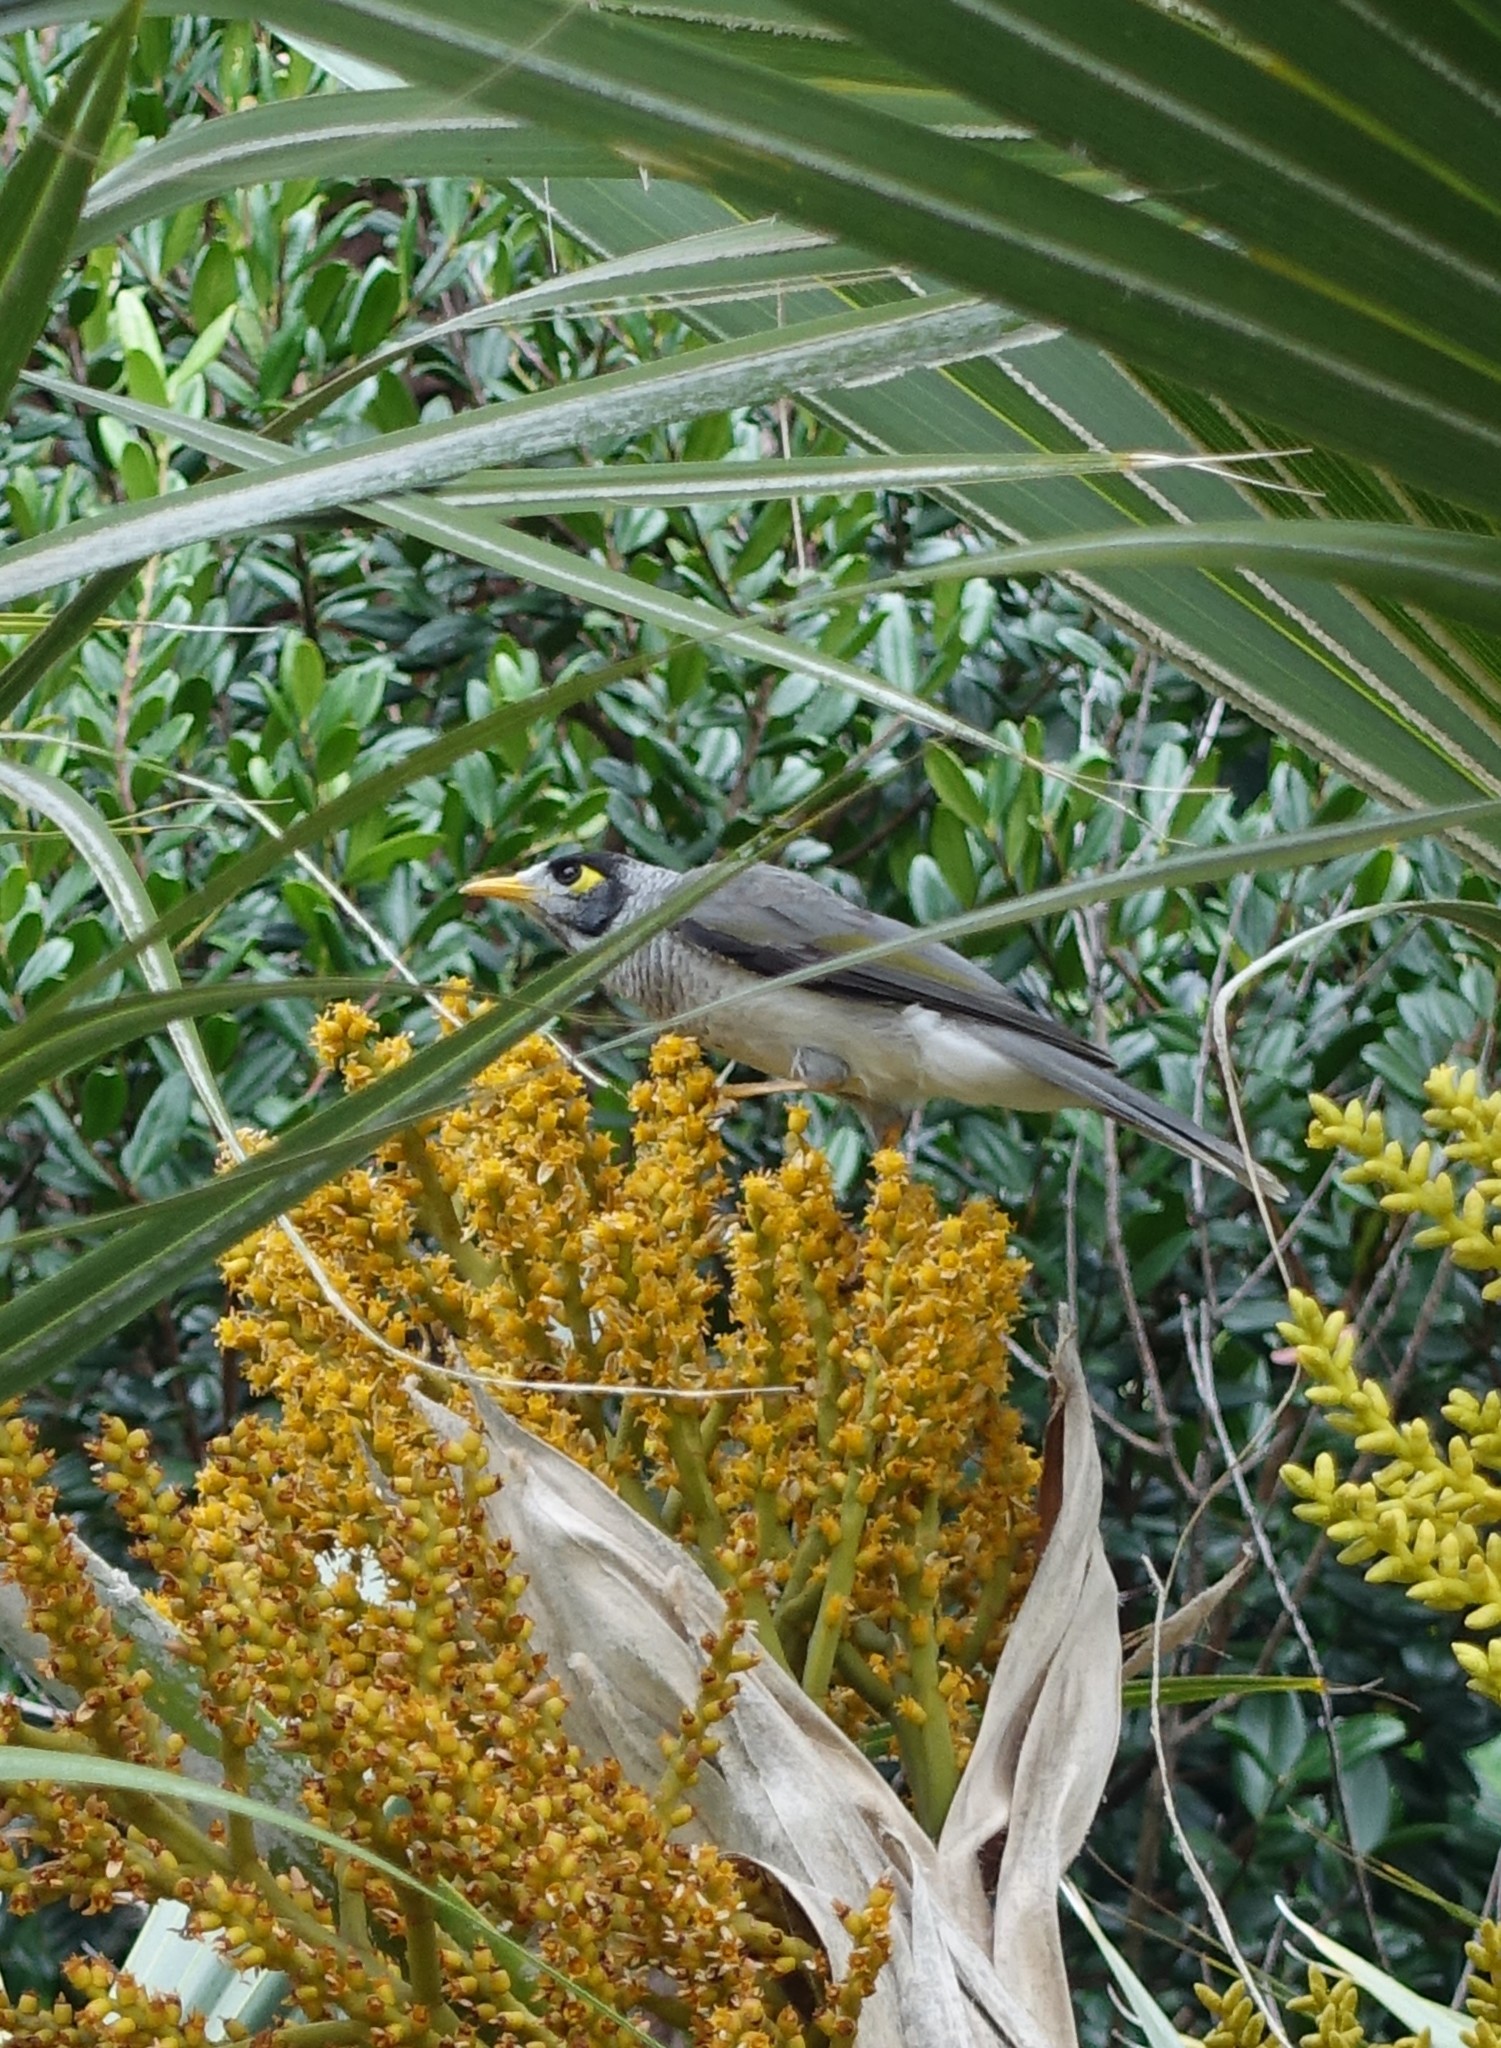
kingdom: Animalia
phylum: Chordata
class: Aves
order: Passeriformes
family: Meliphagidae
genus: Manorina
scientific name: Manorina melanocephala
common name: Noisy miner
